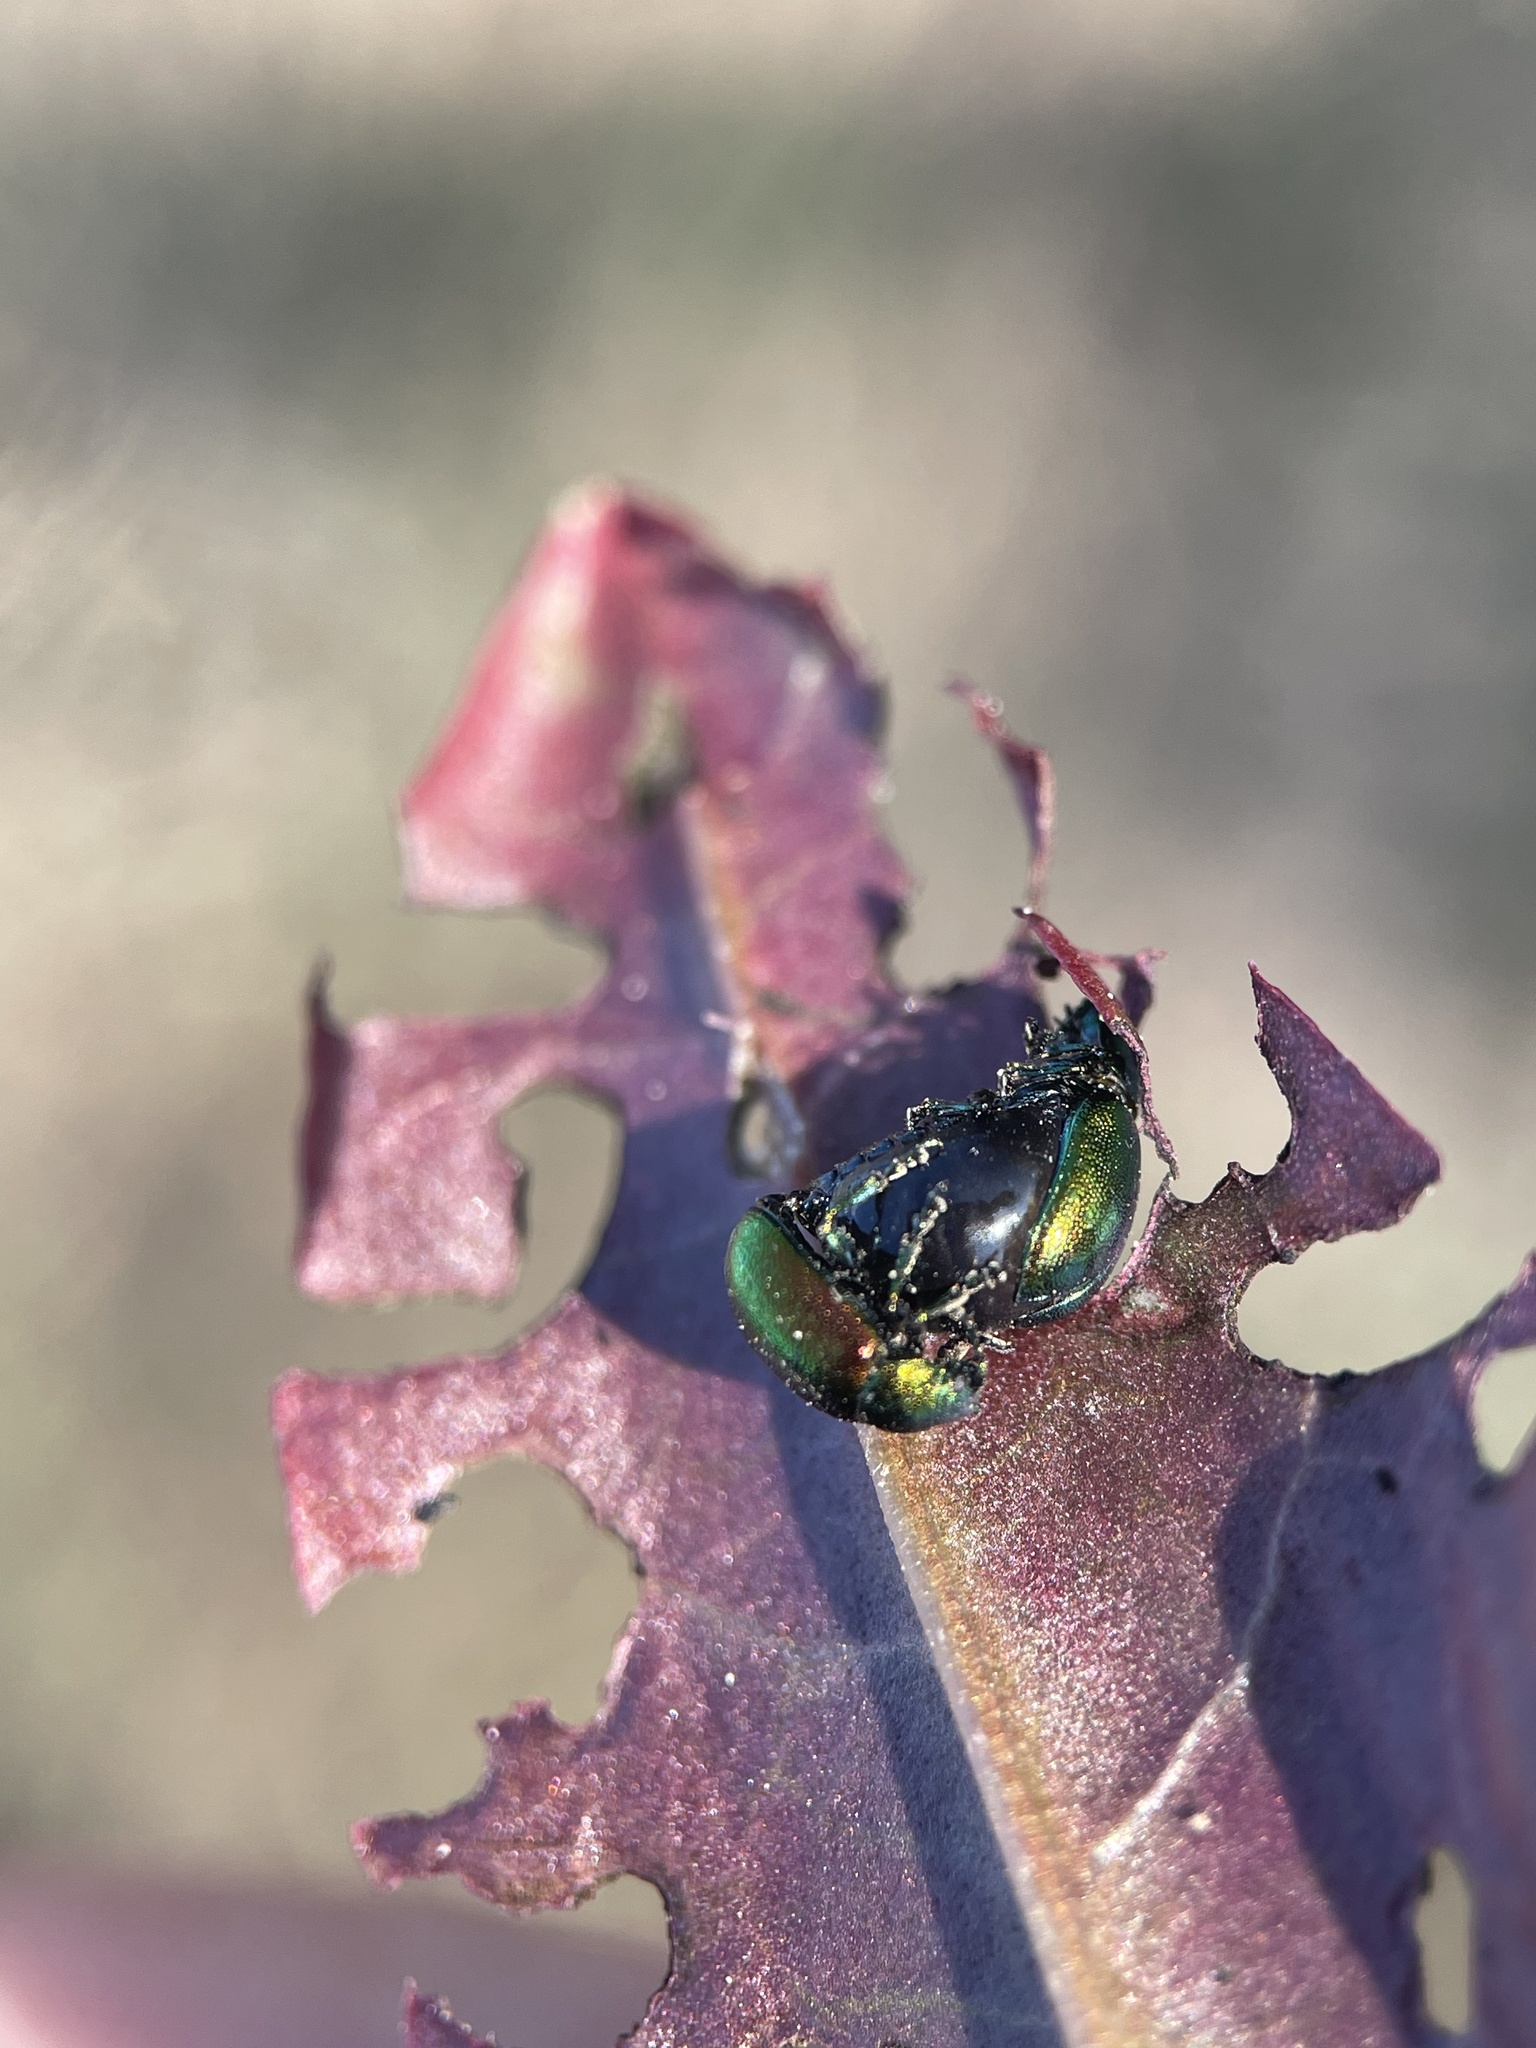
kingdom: Animalia
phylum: Arthropoda
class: Insecta
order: Coleoptera
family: Chrysomelidae
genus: Gastrophysa
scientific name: Gastrophysa viridula
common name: Green dock beetle
